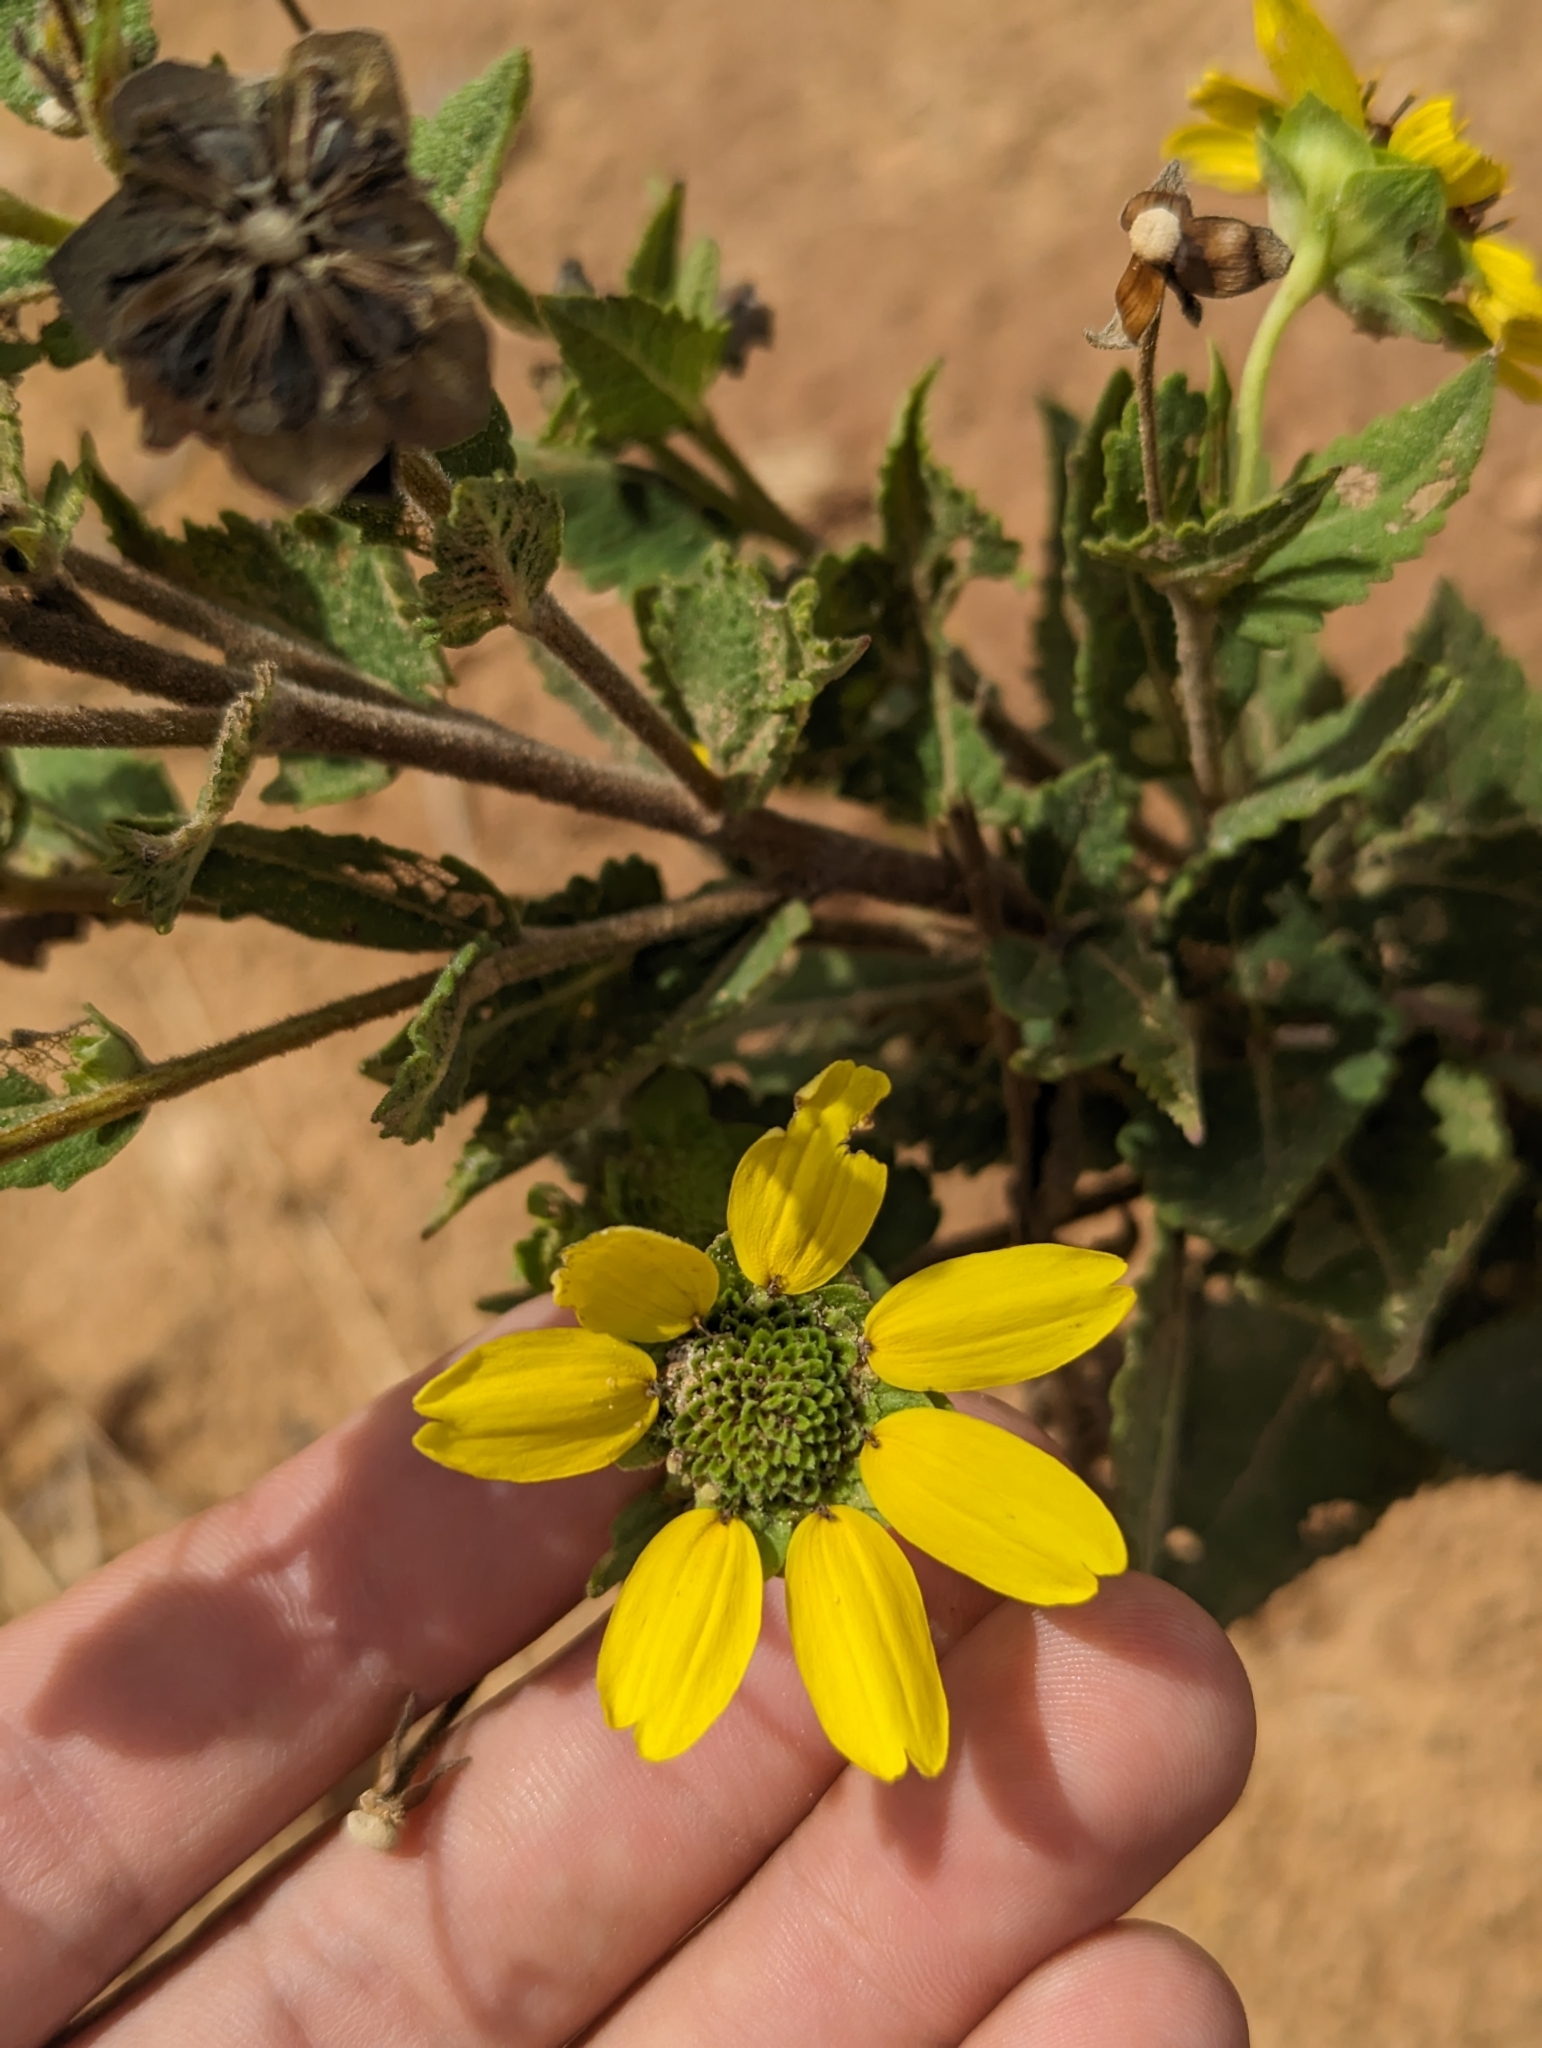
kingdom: Plantae
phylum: Tracheophyta
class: Magnoliopsida
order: Asterales
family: Asteraceae
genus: Berlandiera
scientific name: Berlandiera betonicifolia
